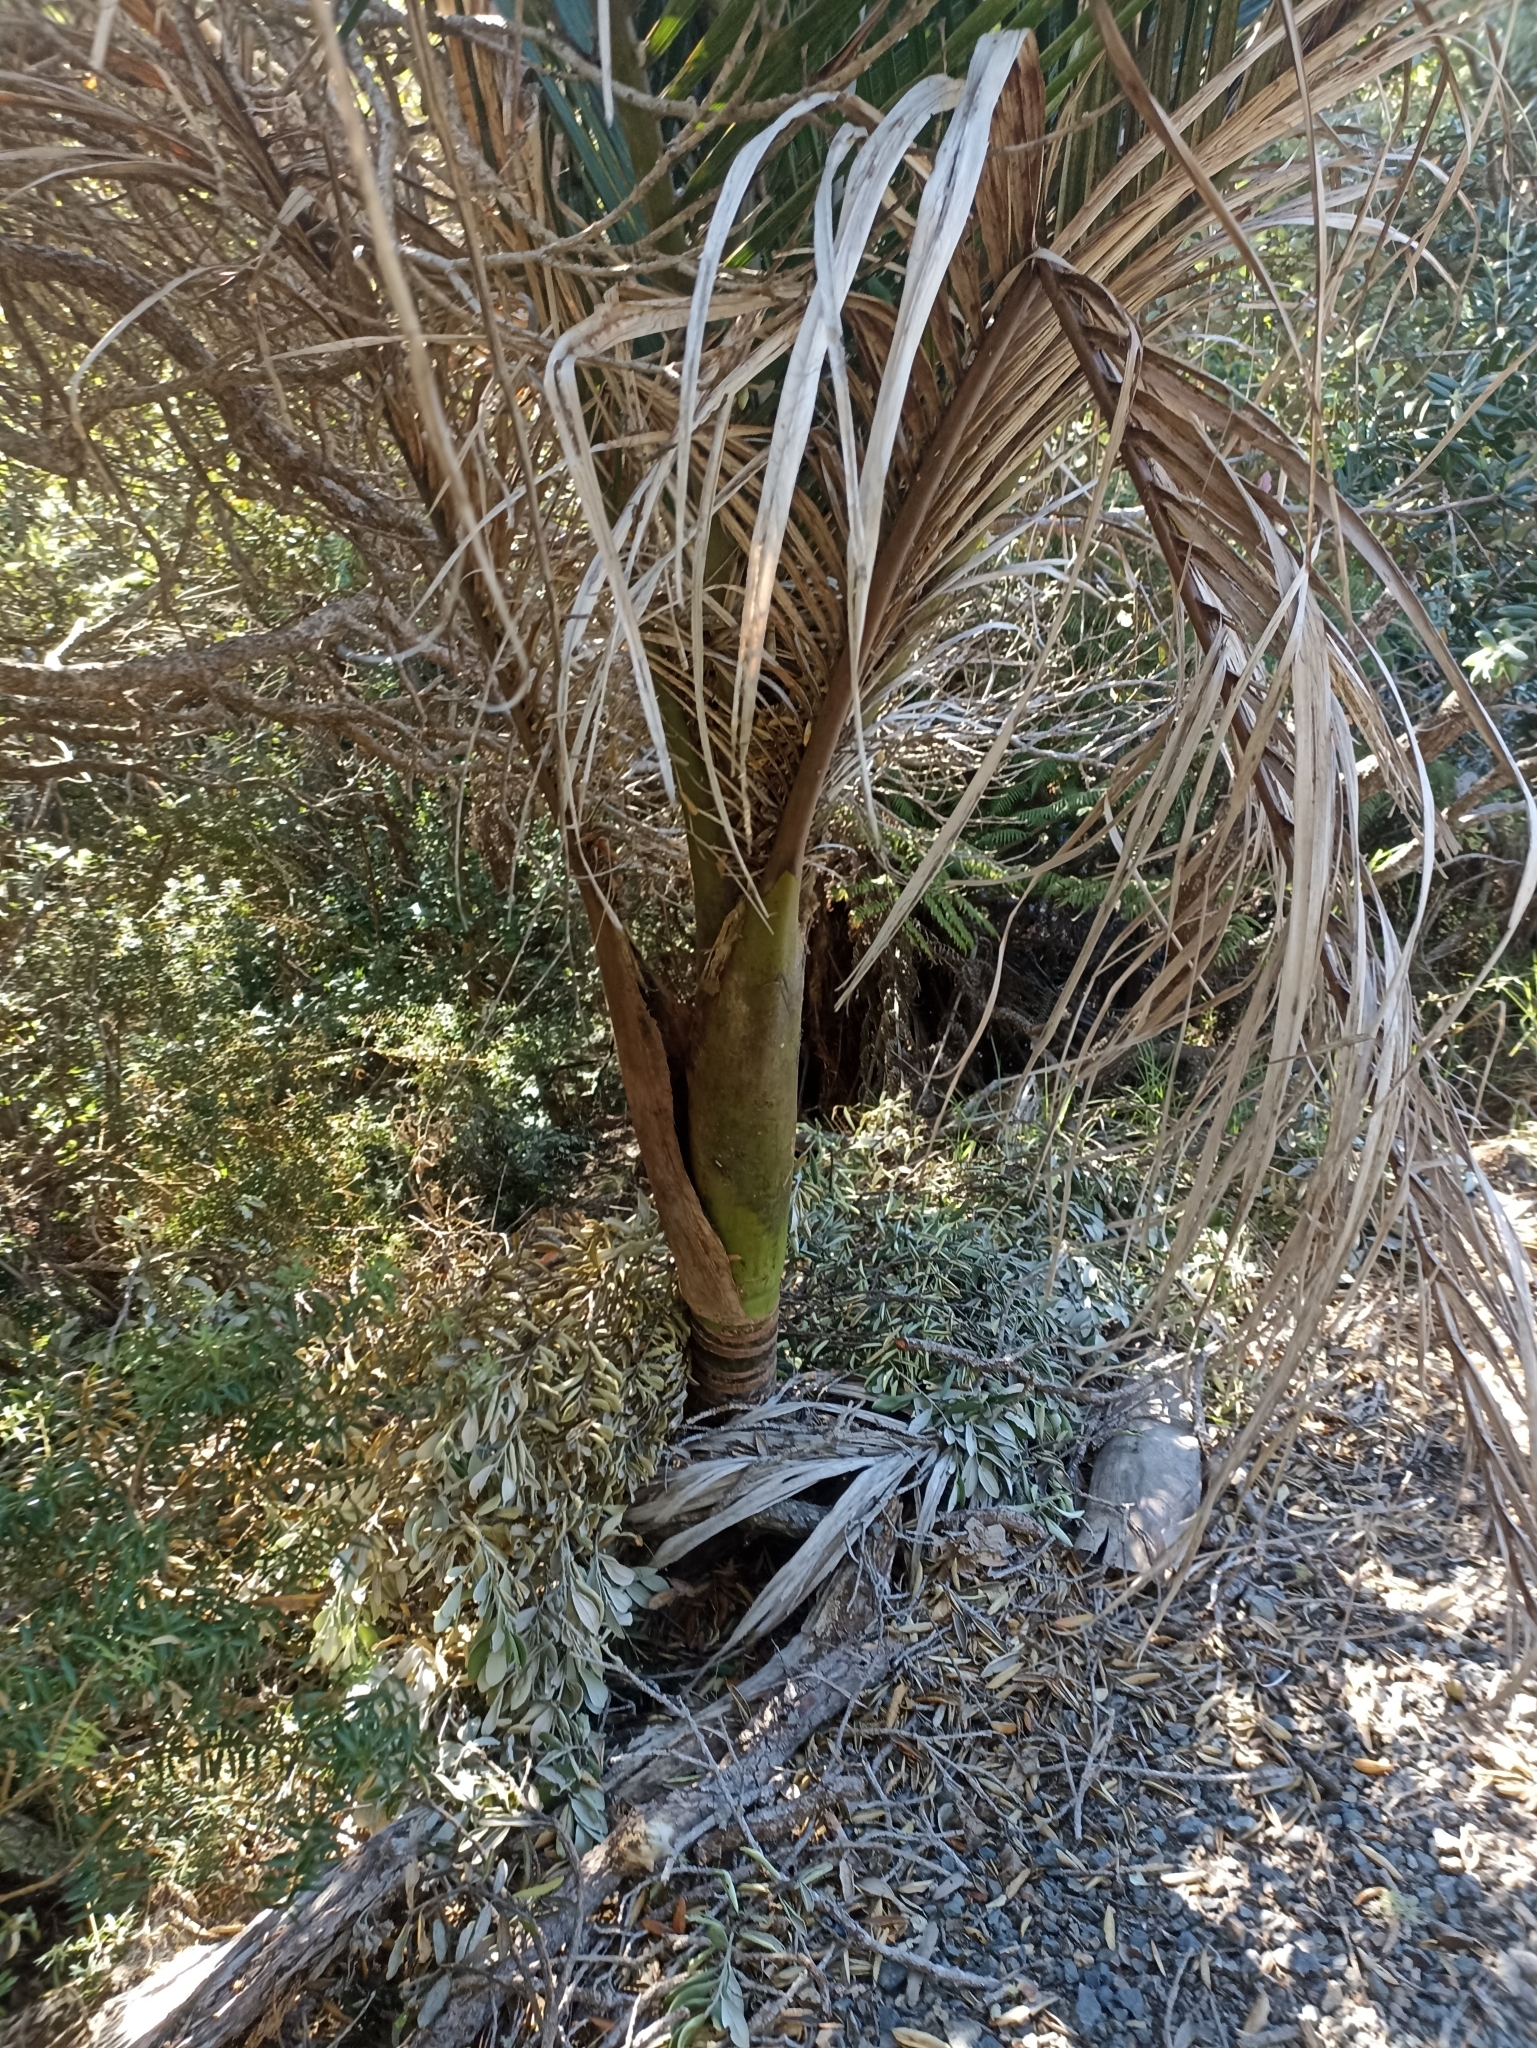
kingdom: Plantae
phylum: Tracheophyta
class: Liliopsida
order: Arecales
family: Arecaceae
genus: Rhopalostylis
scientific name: Rhopalostylis sapida
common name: Feather-duster palm
